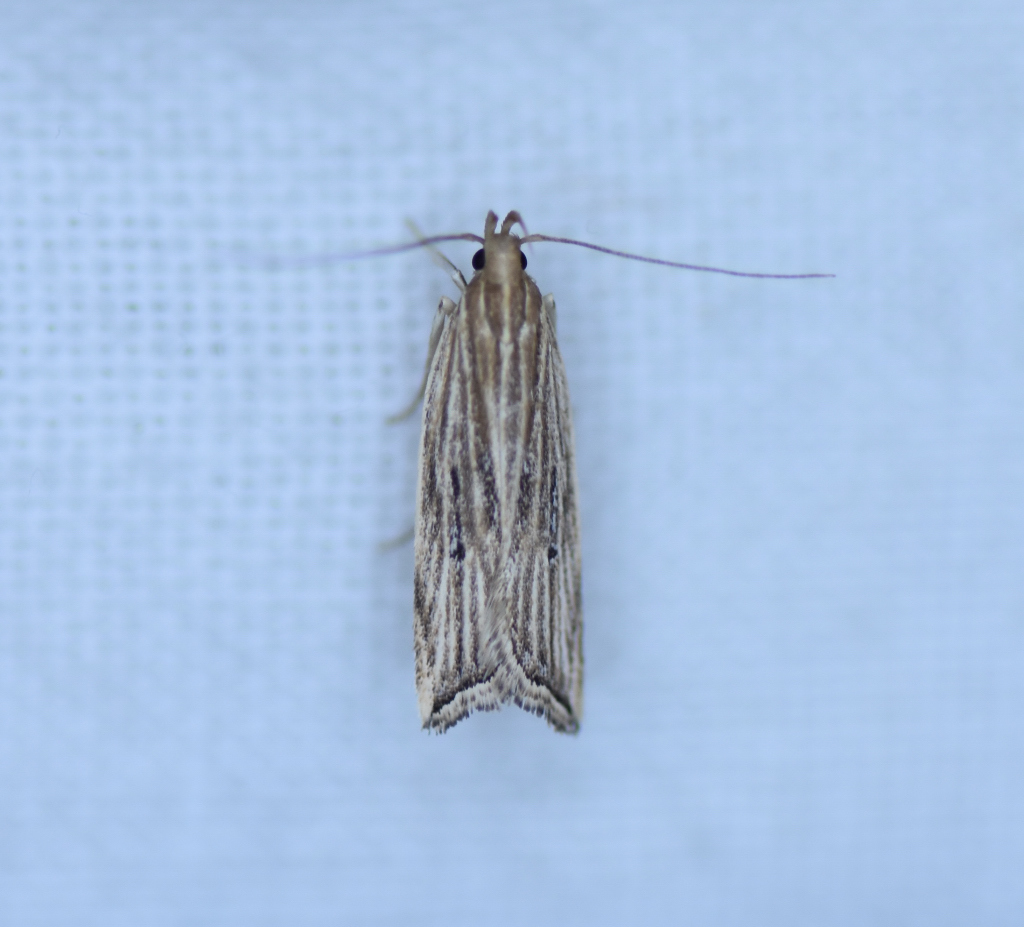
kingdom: Animalia
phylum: Arthropoda
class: Insecta
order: Lepidoptera
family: Gelechiidae
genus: Helcystogramma
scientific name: Helcystogramma hystricella
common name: Lanceolate moth
